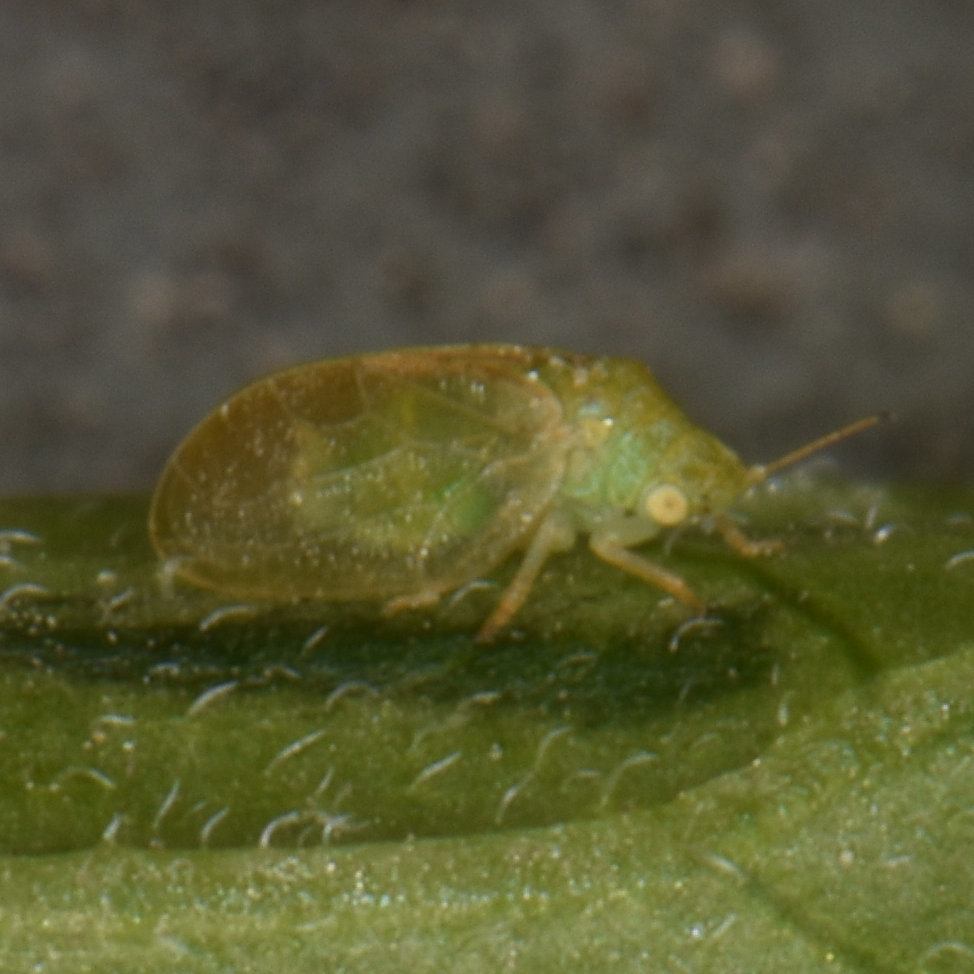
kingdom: Animalia
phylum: Arthropoda
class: Insecta
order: Hemiptera
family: Aphalaridae
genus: Rhinocola
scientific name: Rhinocola aceris
